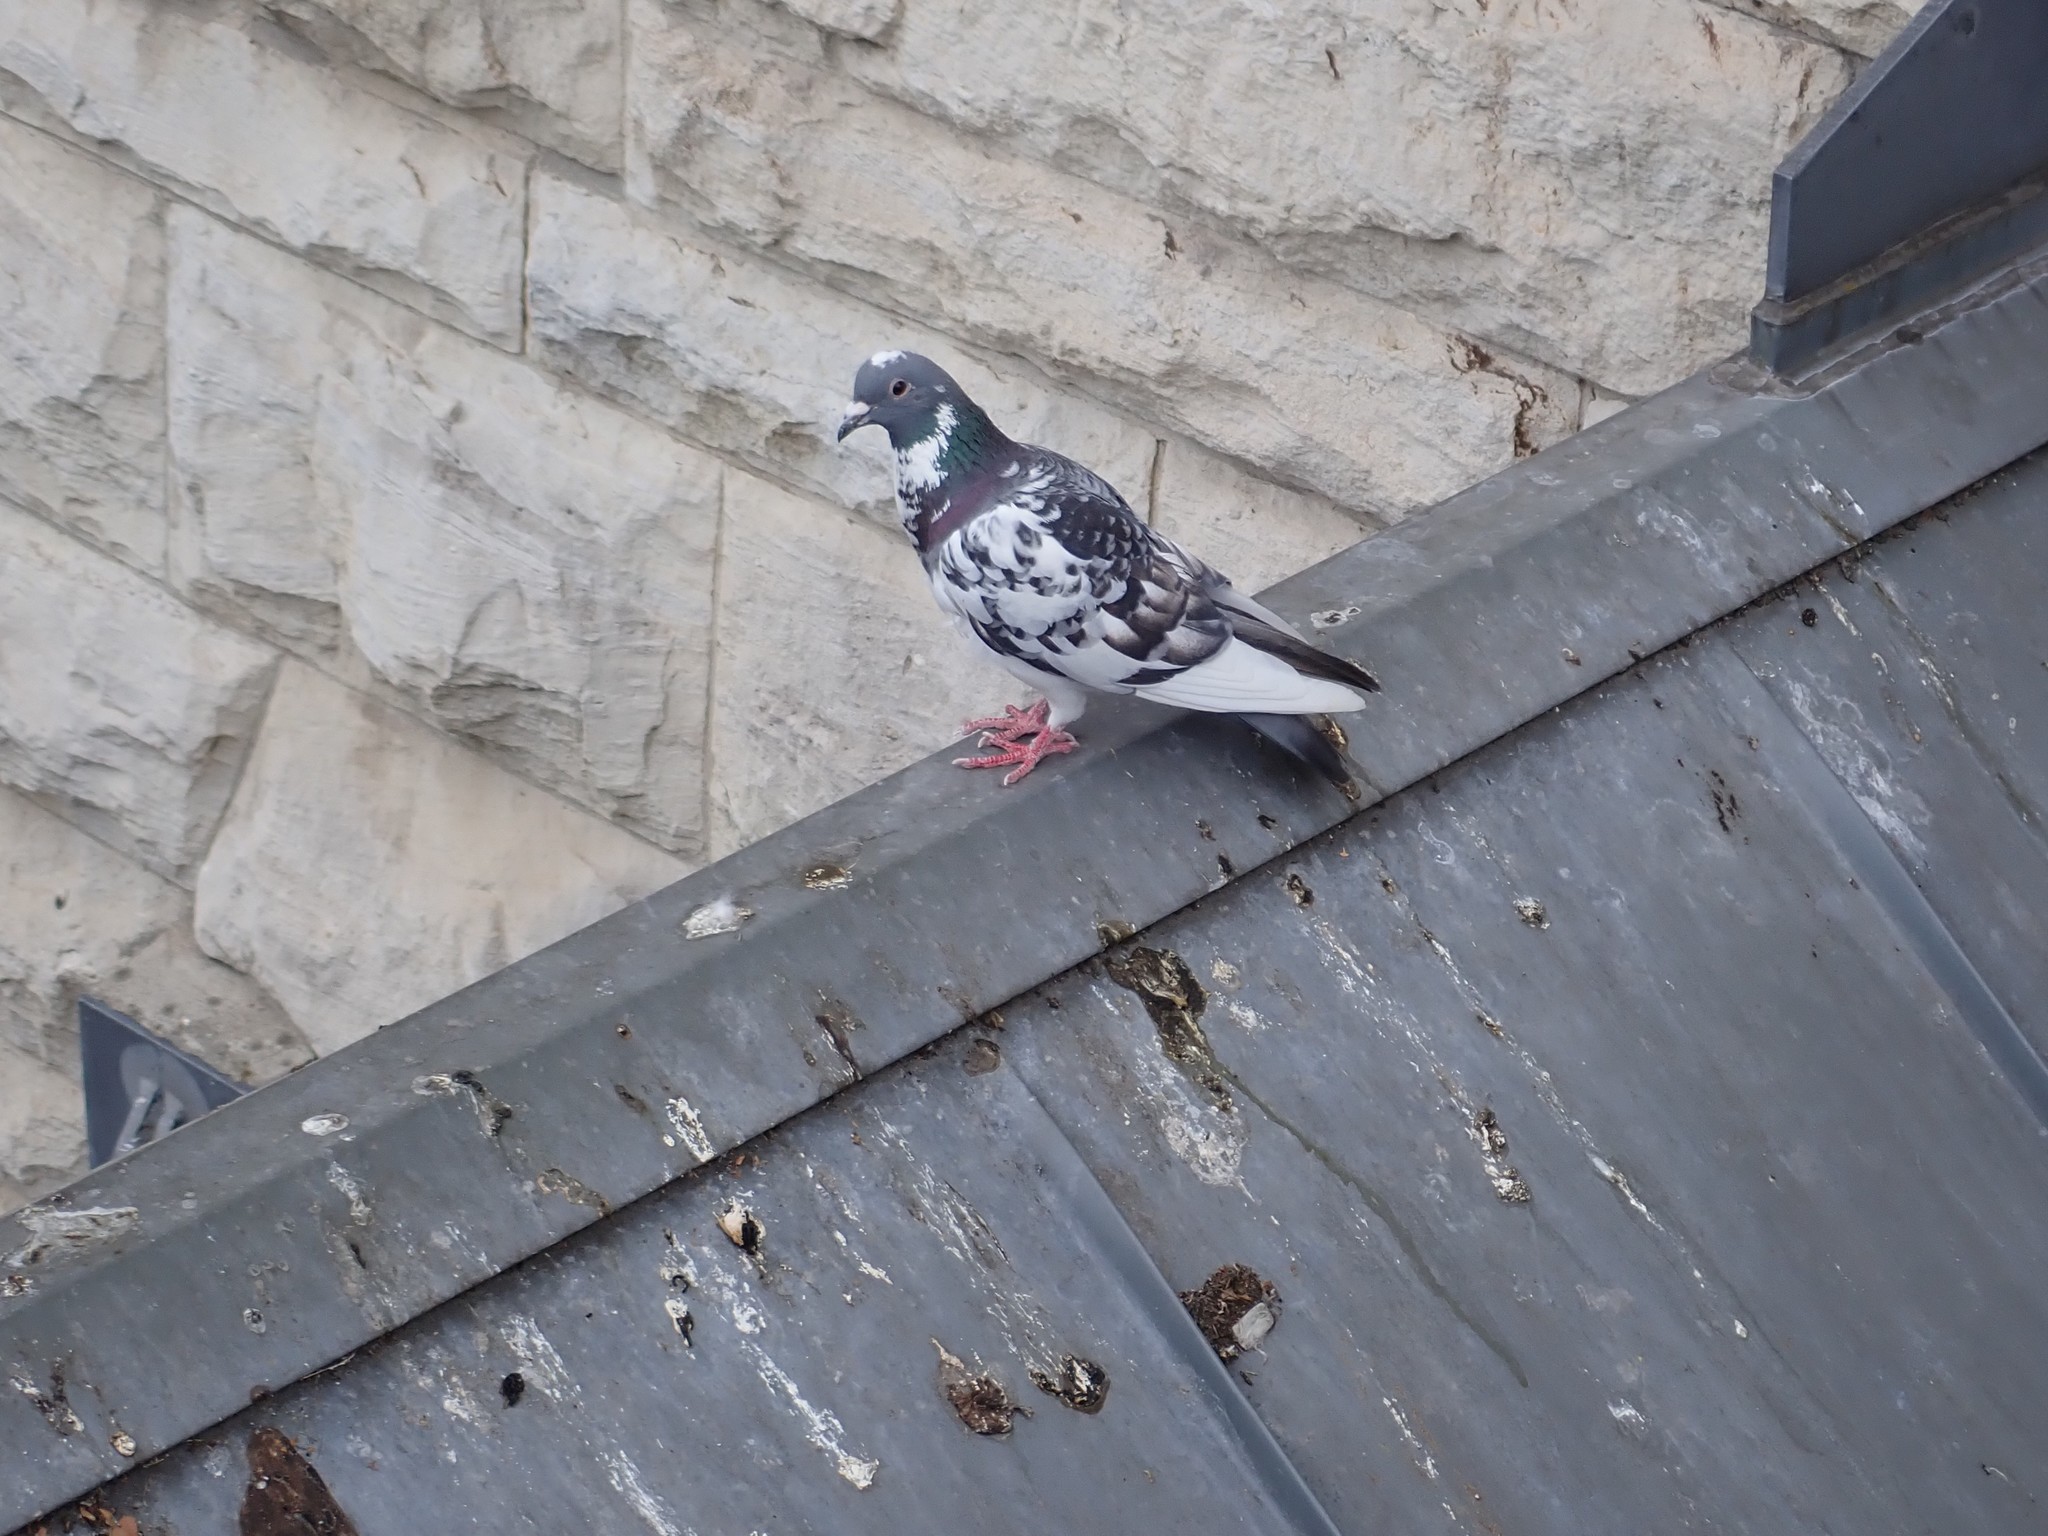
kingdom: Animalia
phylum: Chordata
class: Aves
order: Columbiformes
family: Columbidae
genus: Columba
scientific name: Columba livia
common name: Rock pigeon
